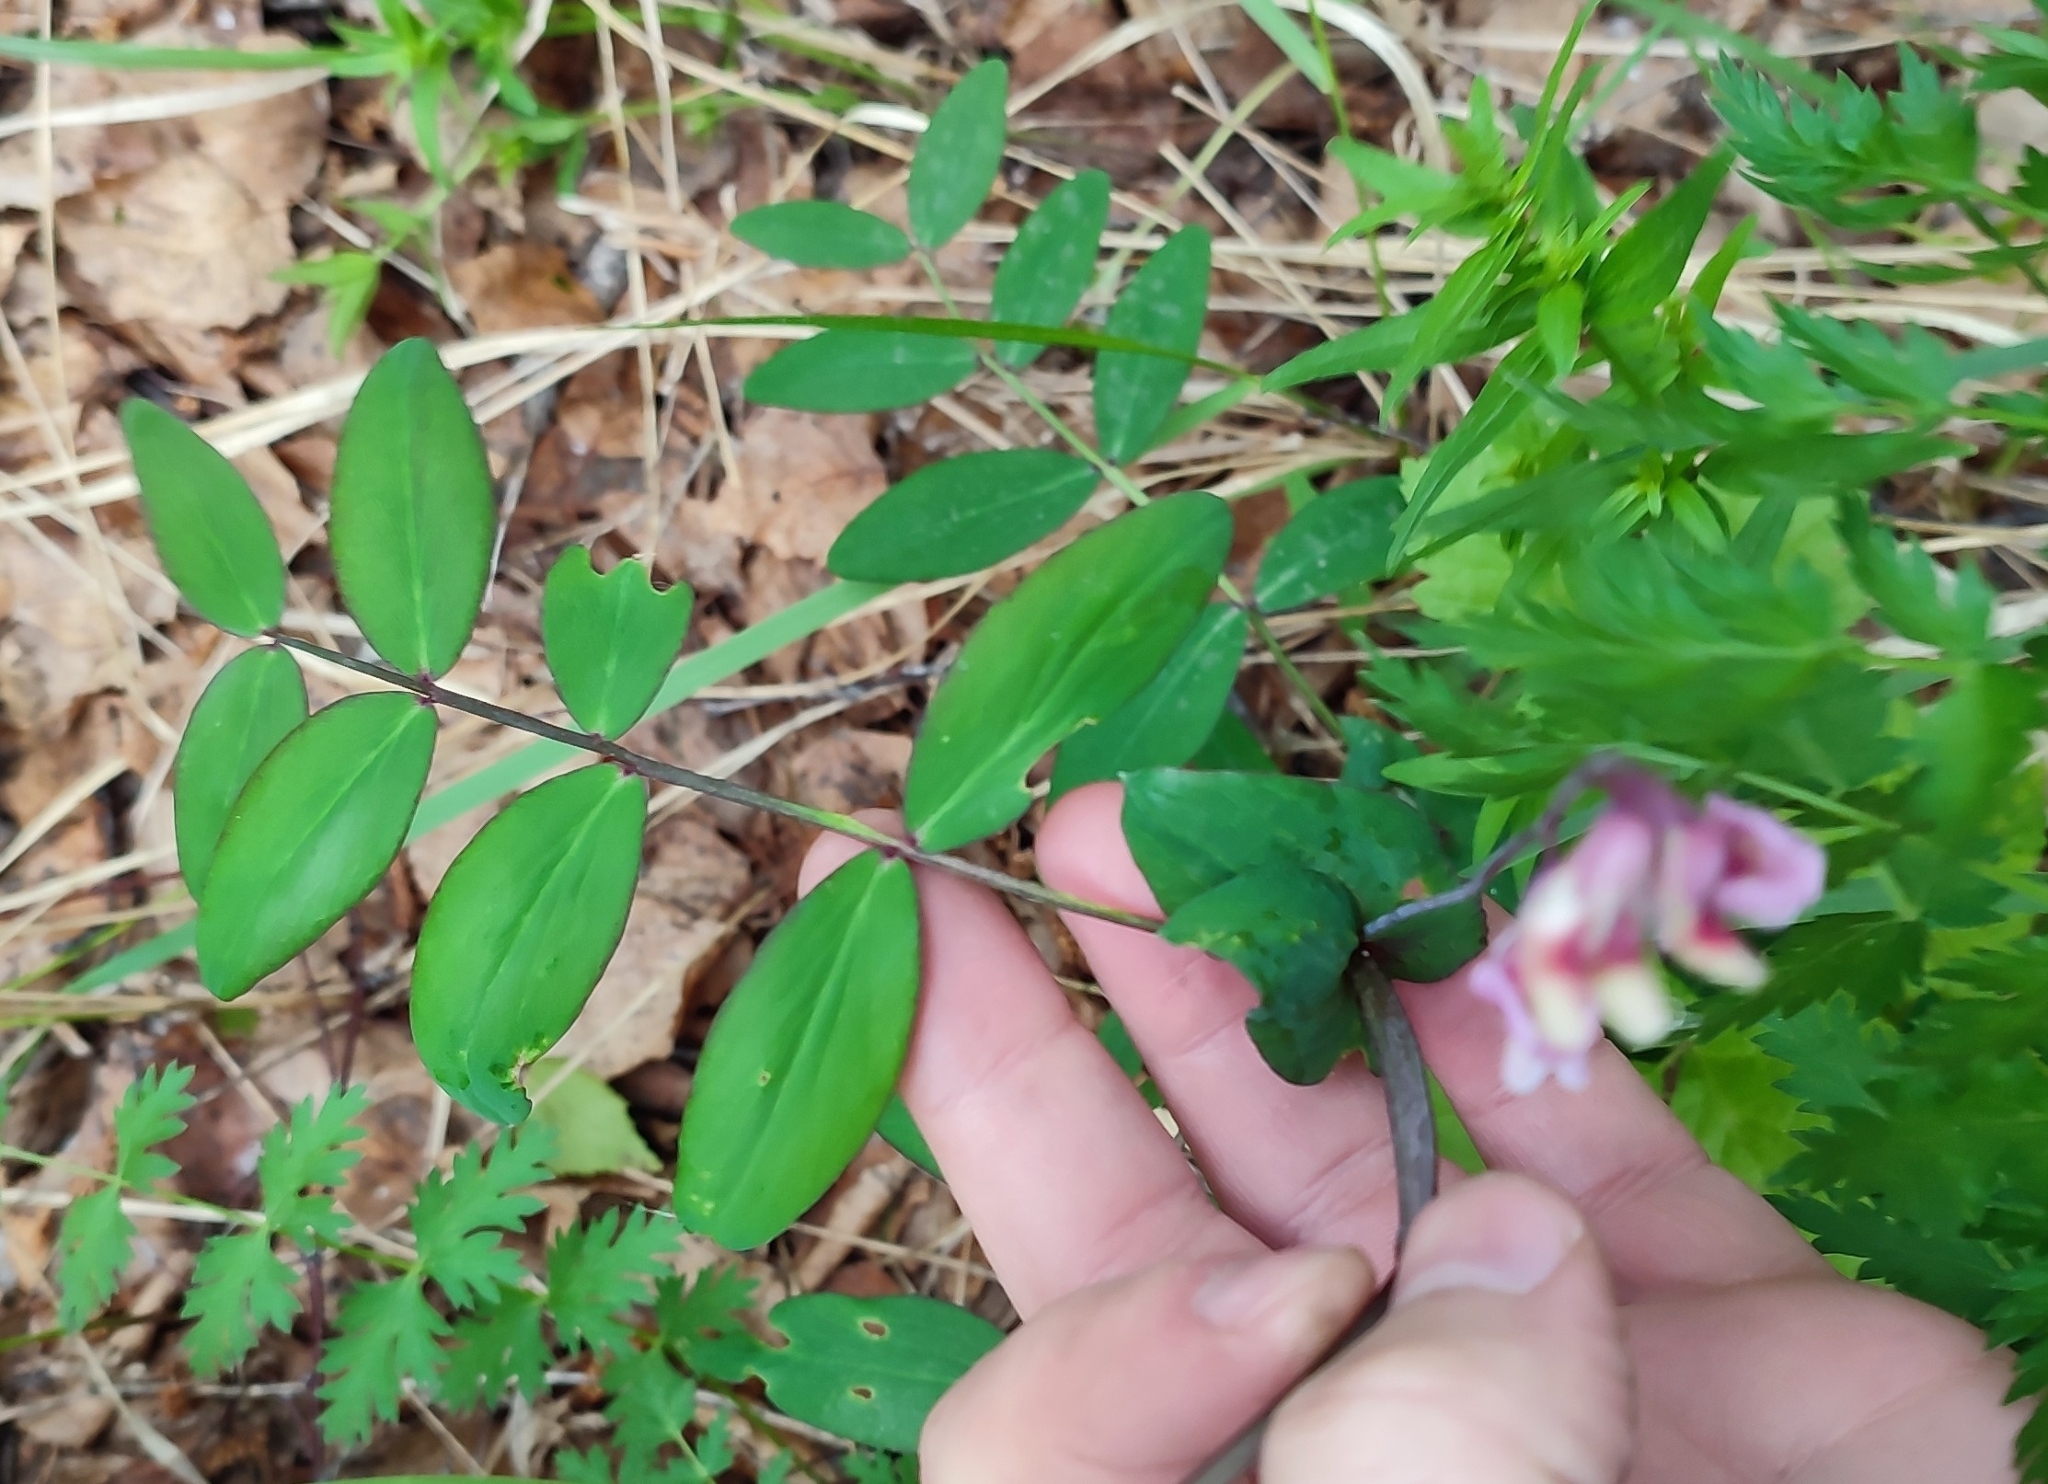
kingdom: Plantae
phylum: Tracheophyta
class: Magnoliopsida
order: Fabales
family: Fabaceae
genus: Lathyrus
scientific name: Lathyrus pisiformis
